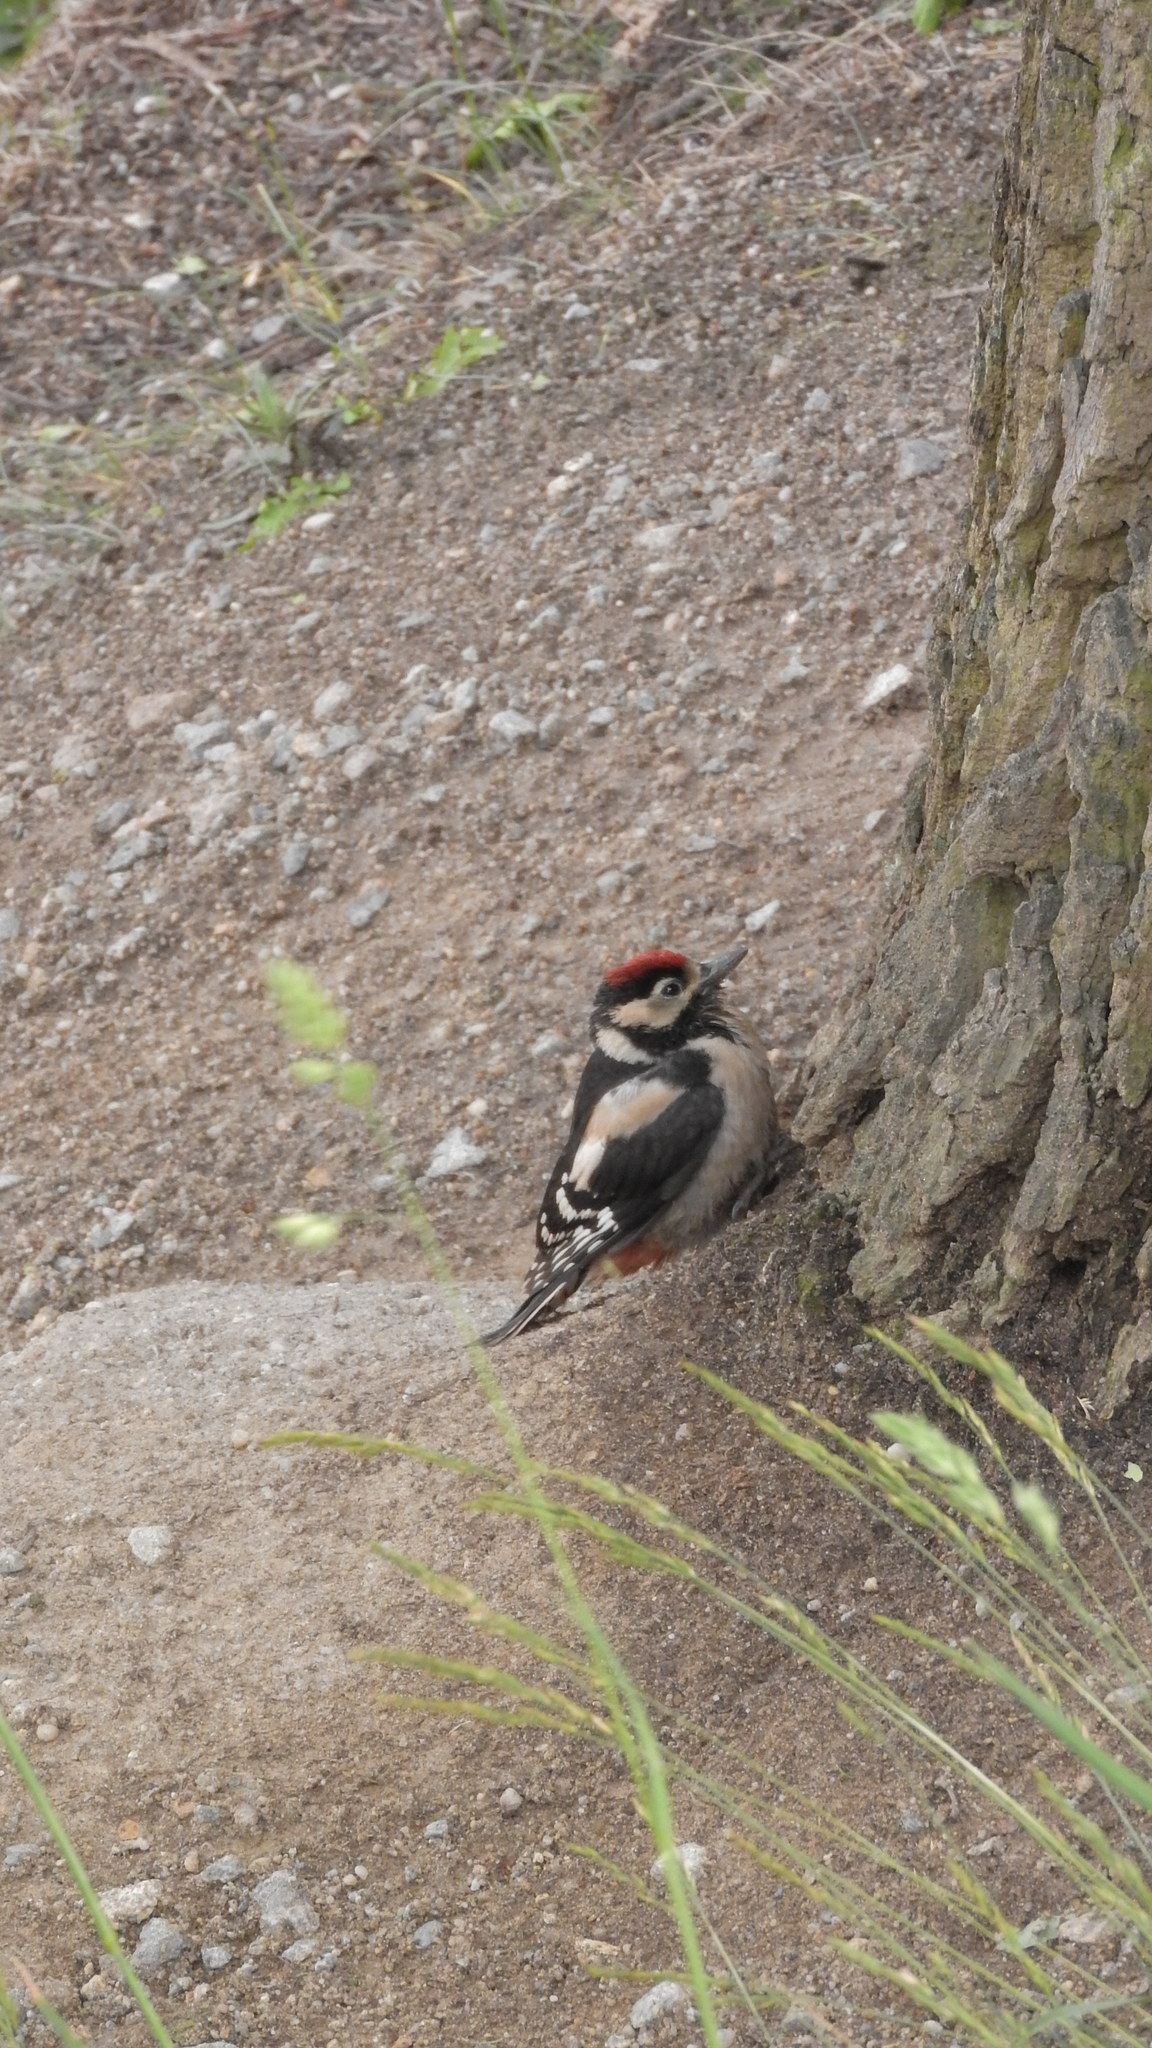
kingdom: Animalia
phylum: Chordata
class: Aves
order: Piciformes
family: Picidae
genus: Dendrocopos
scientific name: Dendrocopos major
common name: Great spotted woodpecker
